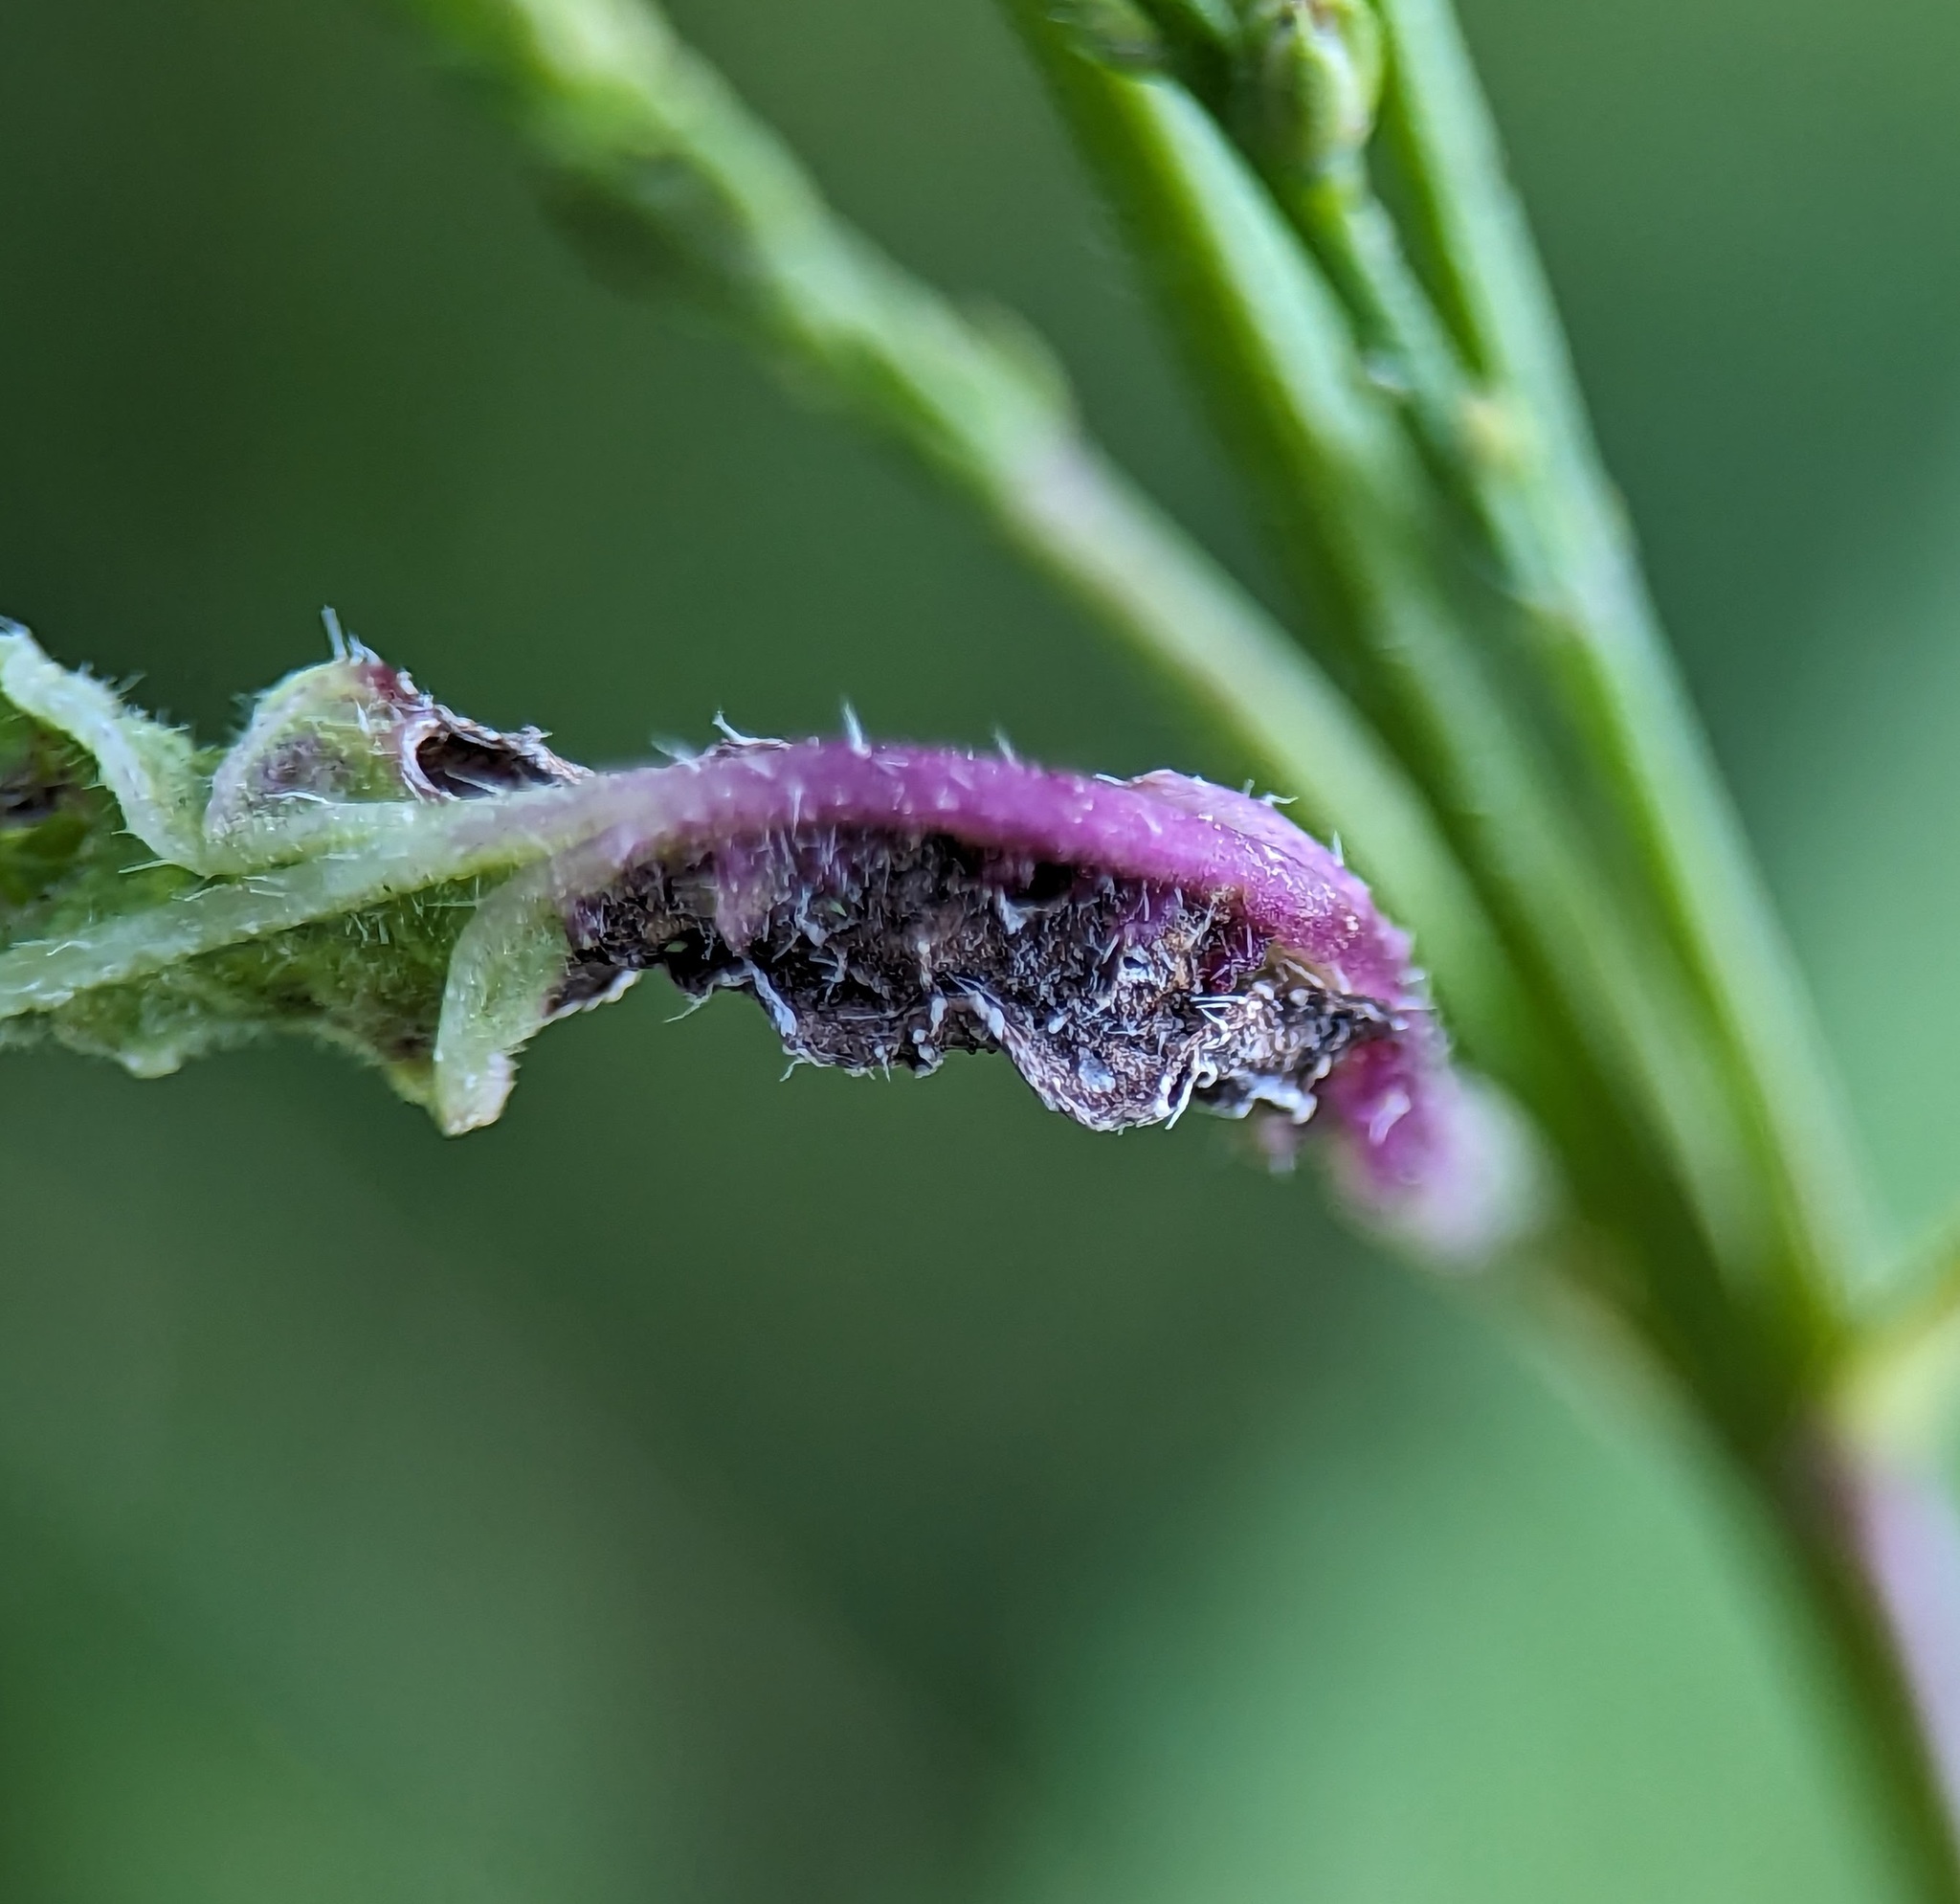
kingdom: Animalia
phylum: Arthropoda
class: Insecta
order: Diptera
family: Cecidomyiidae
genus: Clinodiplosis
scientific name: Clinodiplosis verbenae
